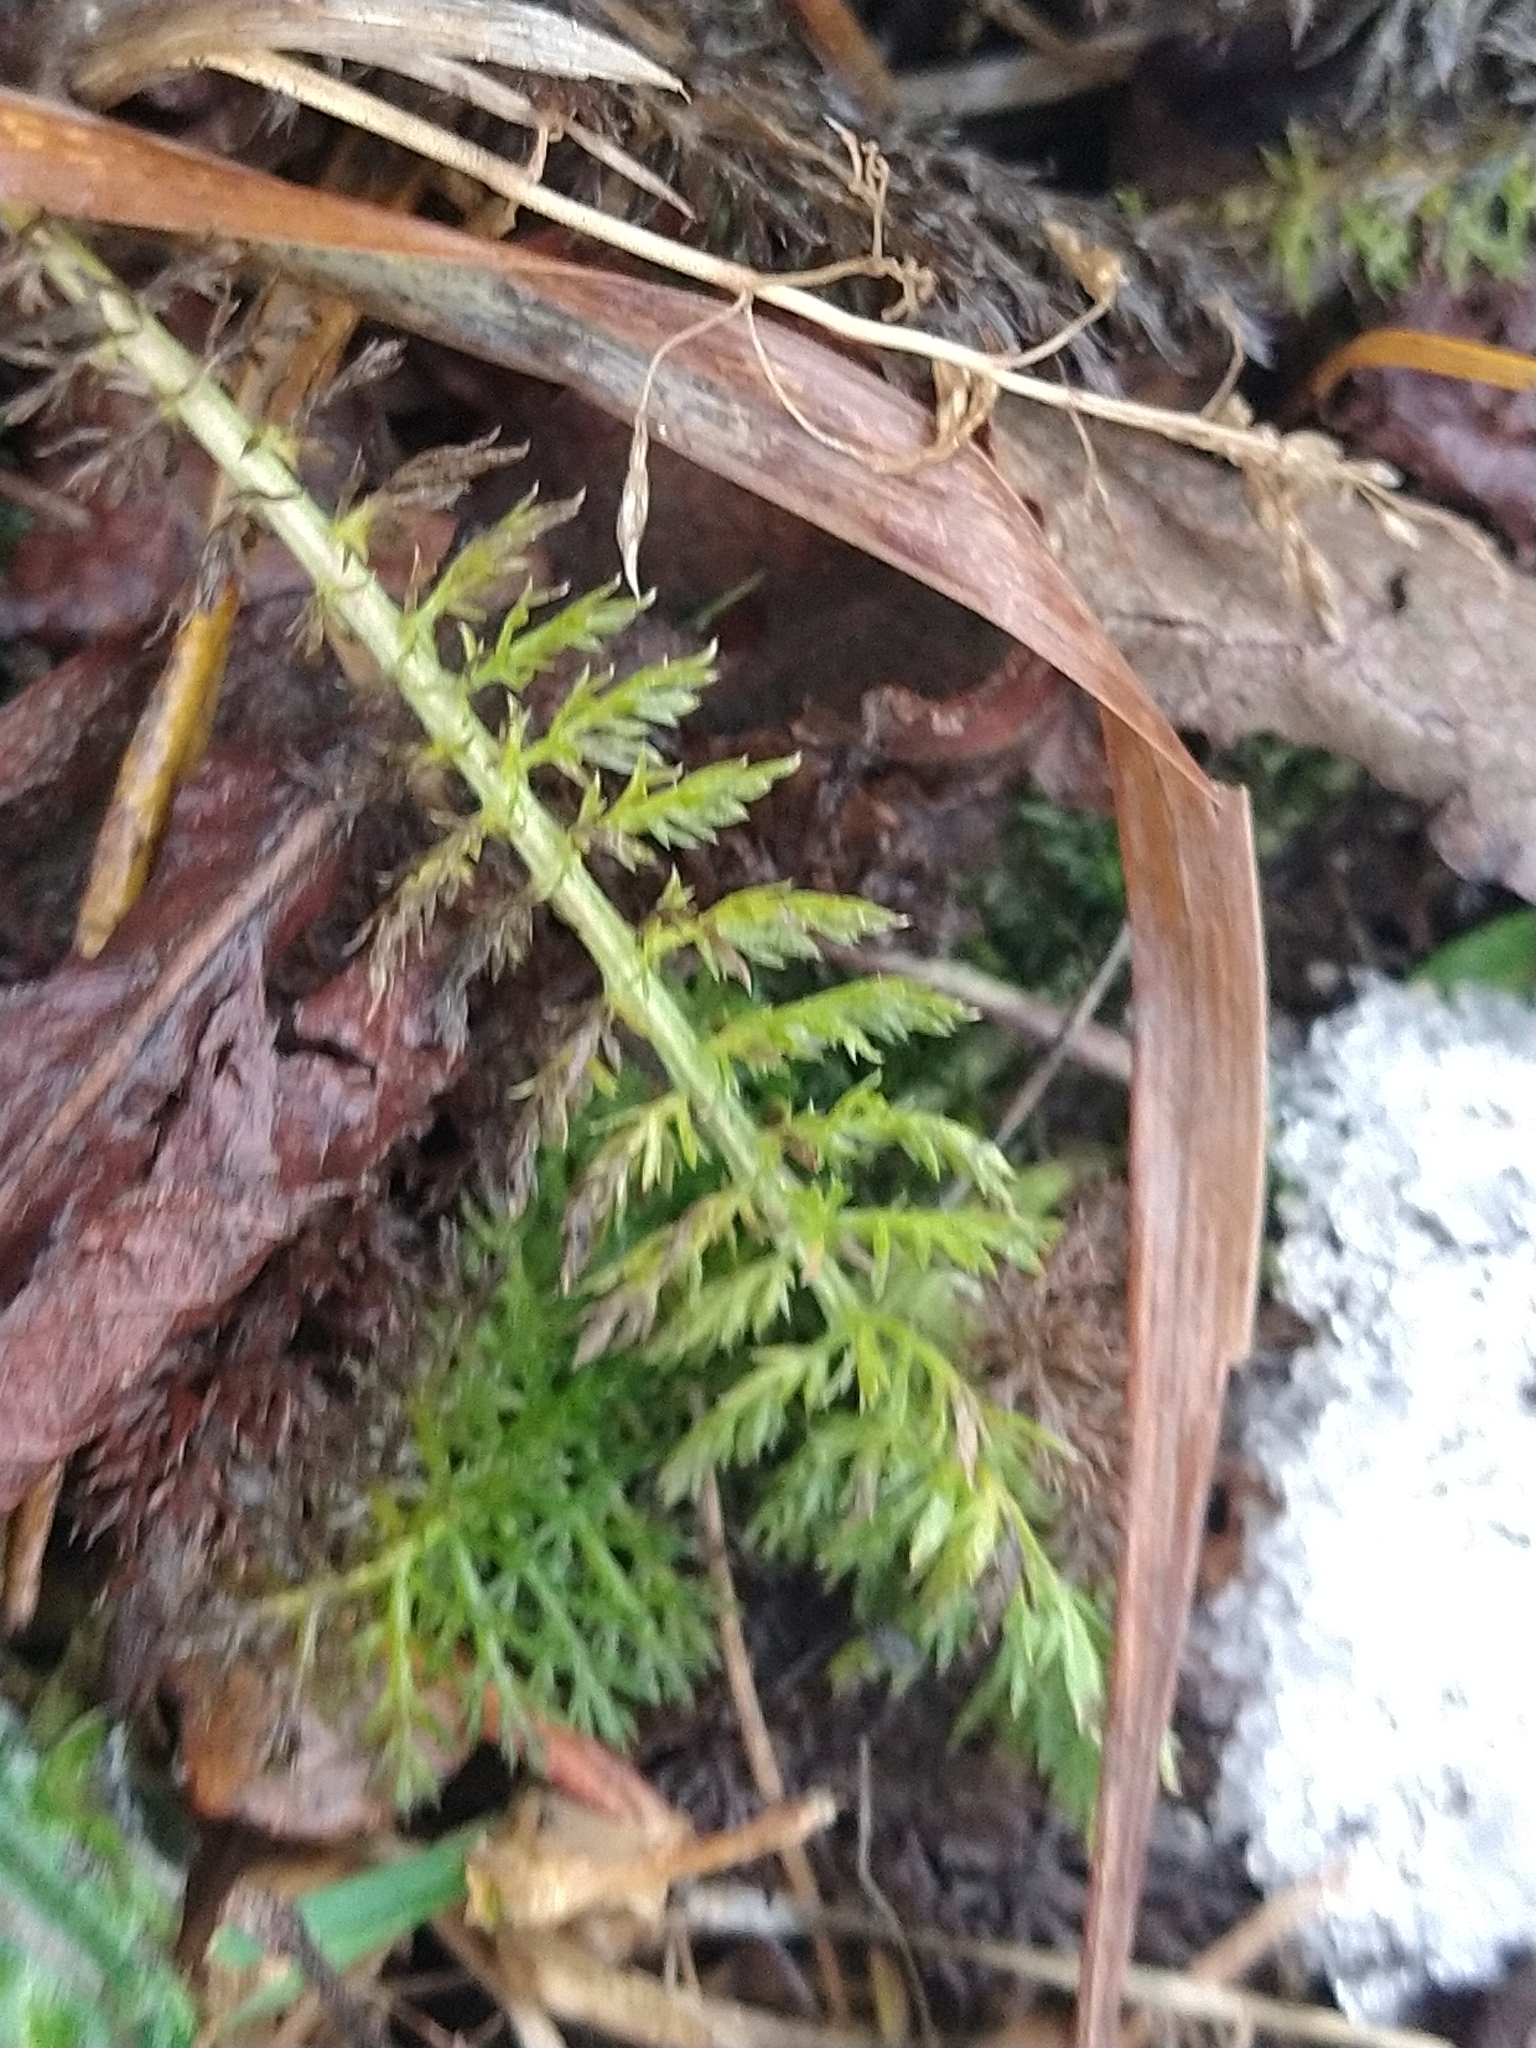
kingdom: Plantae
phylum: Tracheophyta
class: Magnoliopsida
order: Asterales
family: Asteraceae
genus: Achillea
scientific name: Achillea millefolium
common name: Yarrow
